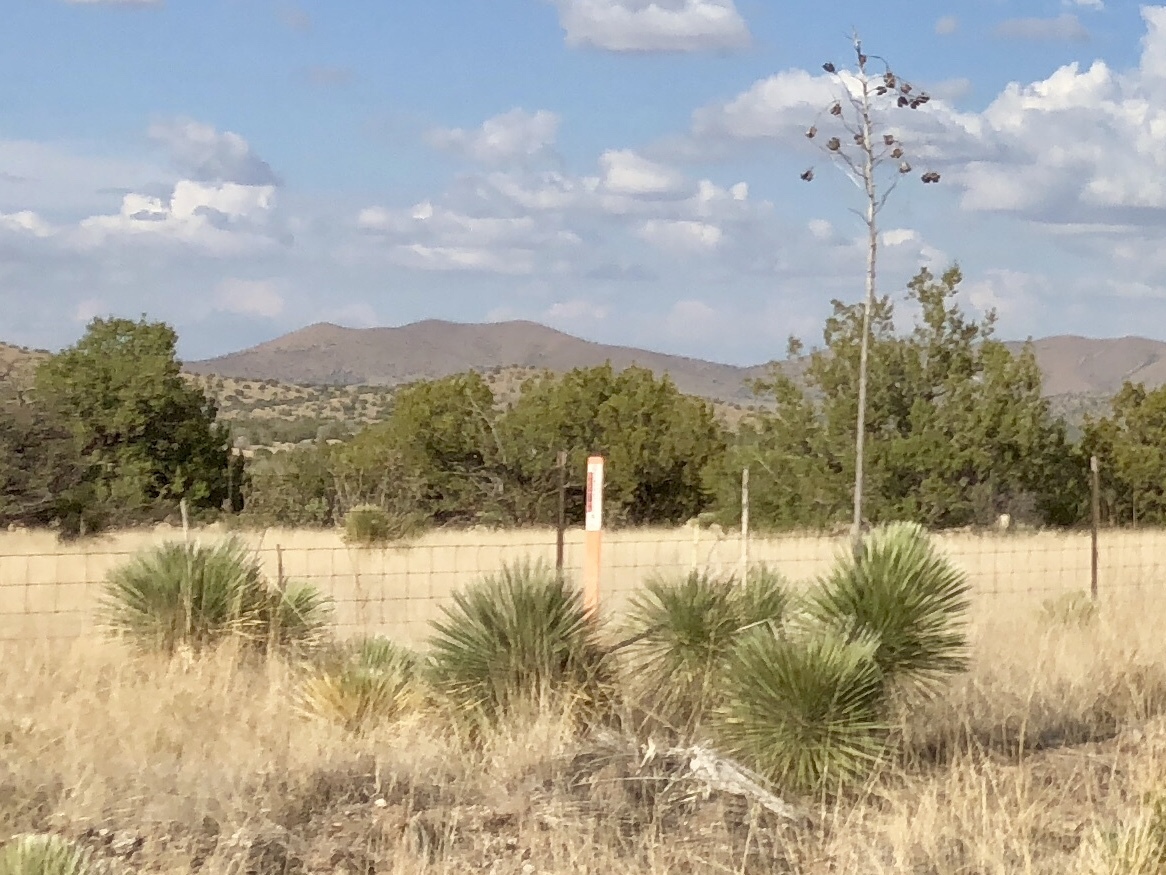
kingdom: Plantae
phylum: Tracheophyta
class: Liliopsida
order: Asparagales
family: Asparagaceae
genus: Yucca
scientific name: Yucca elata
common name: Palmella
